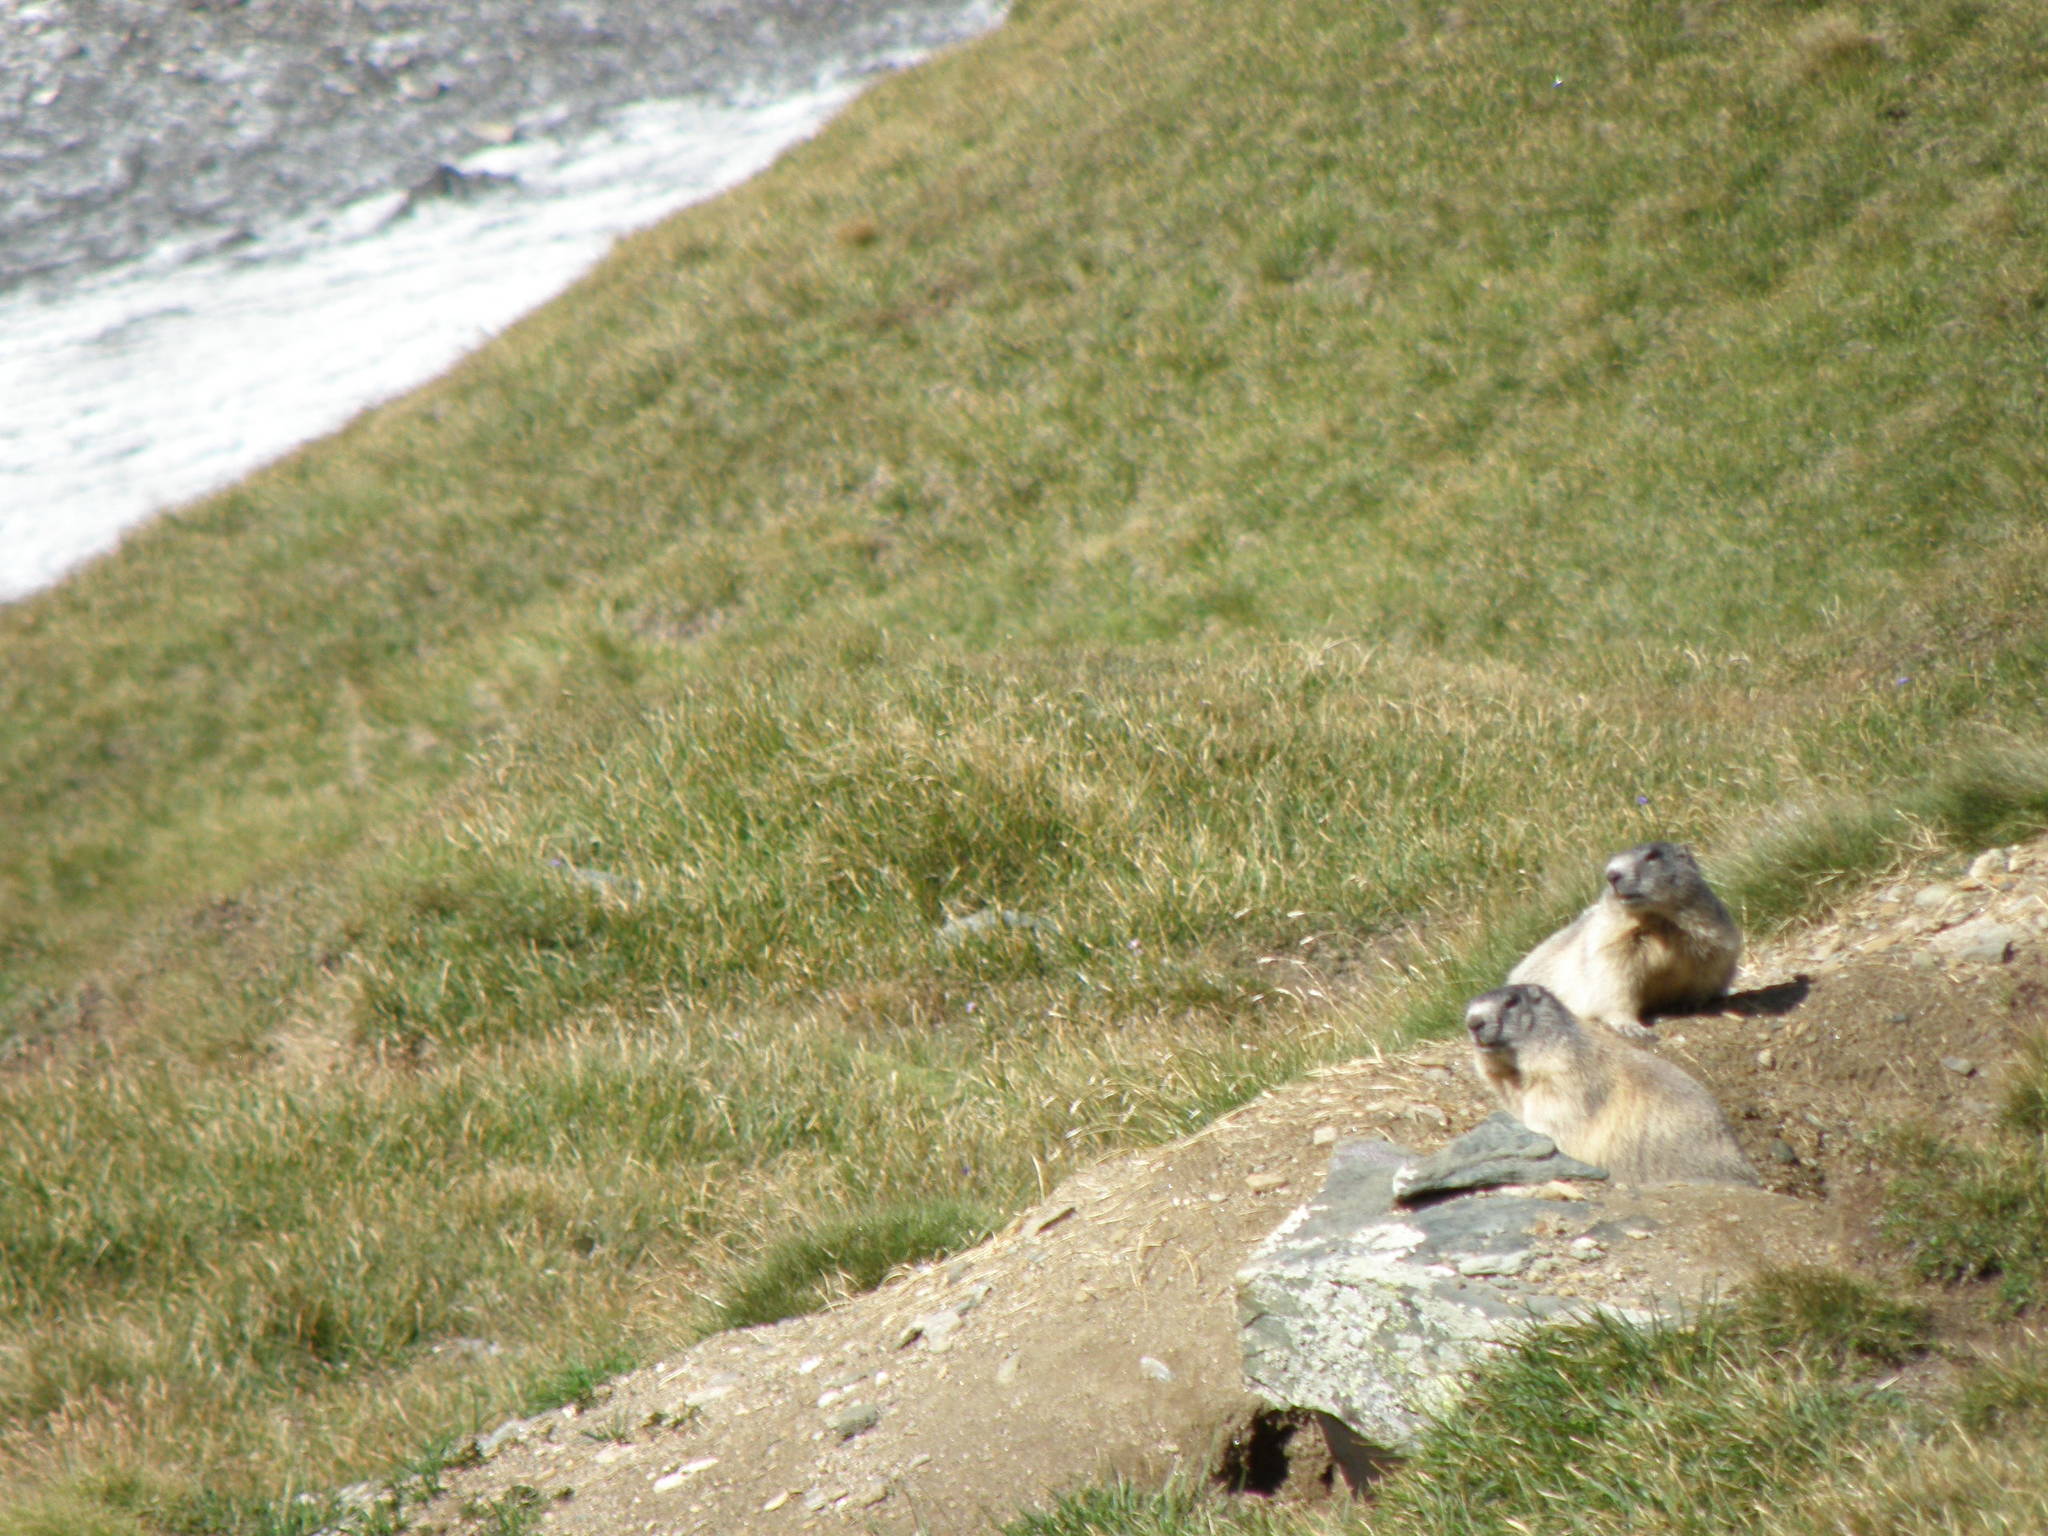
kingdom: Animalia
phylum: Chordata
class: Mammalia
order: Rodentia
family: Sciuridae
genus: Marmota
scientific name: Marmota marmota
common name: Alpine marmot
